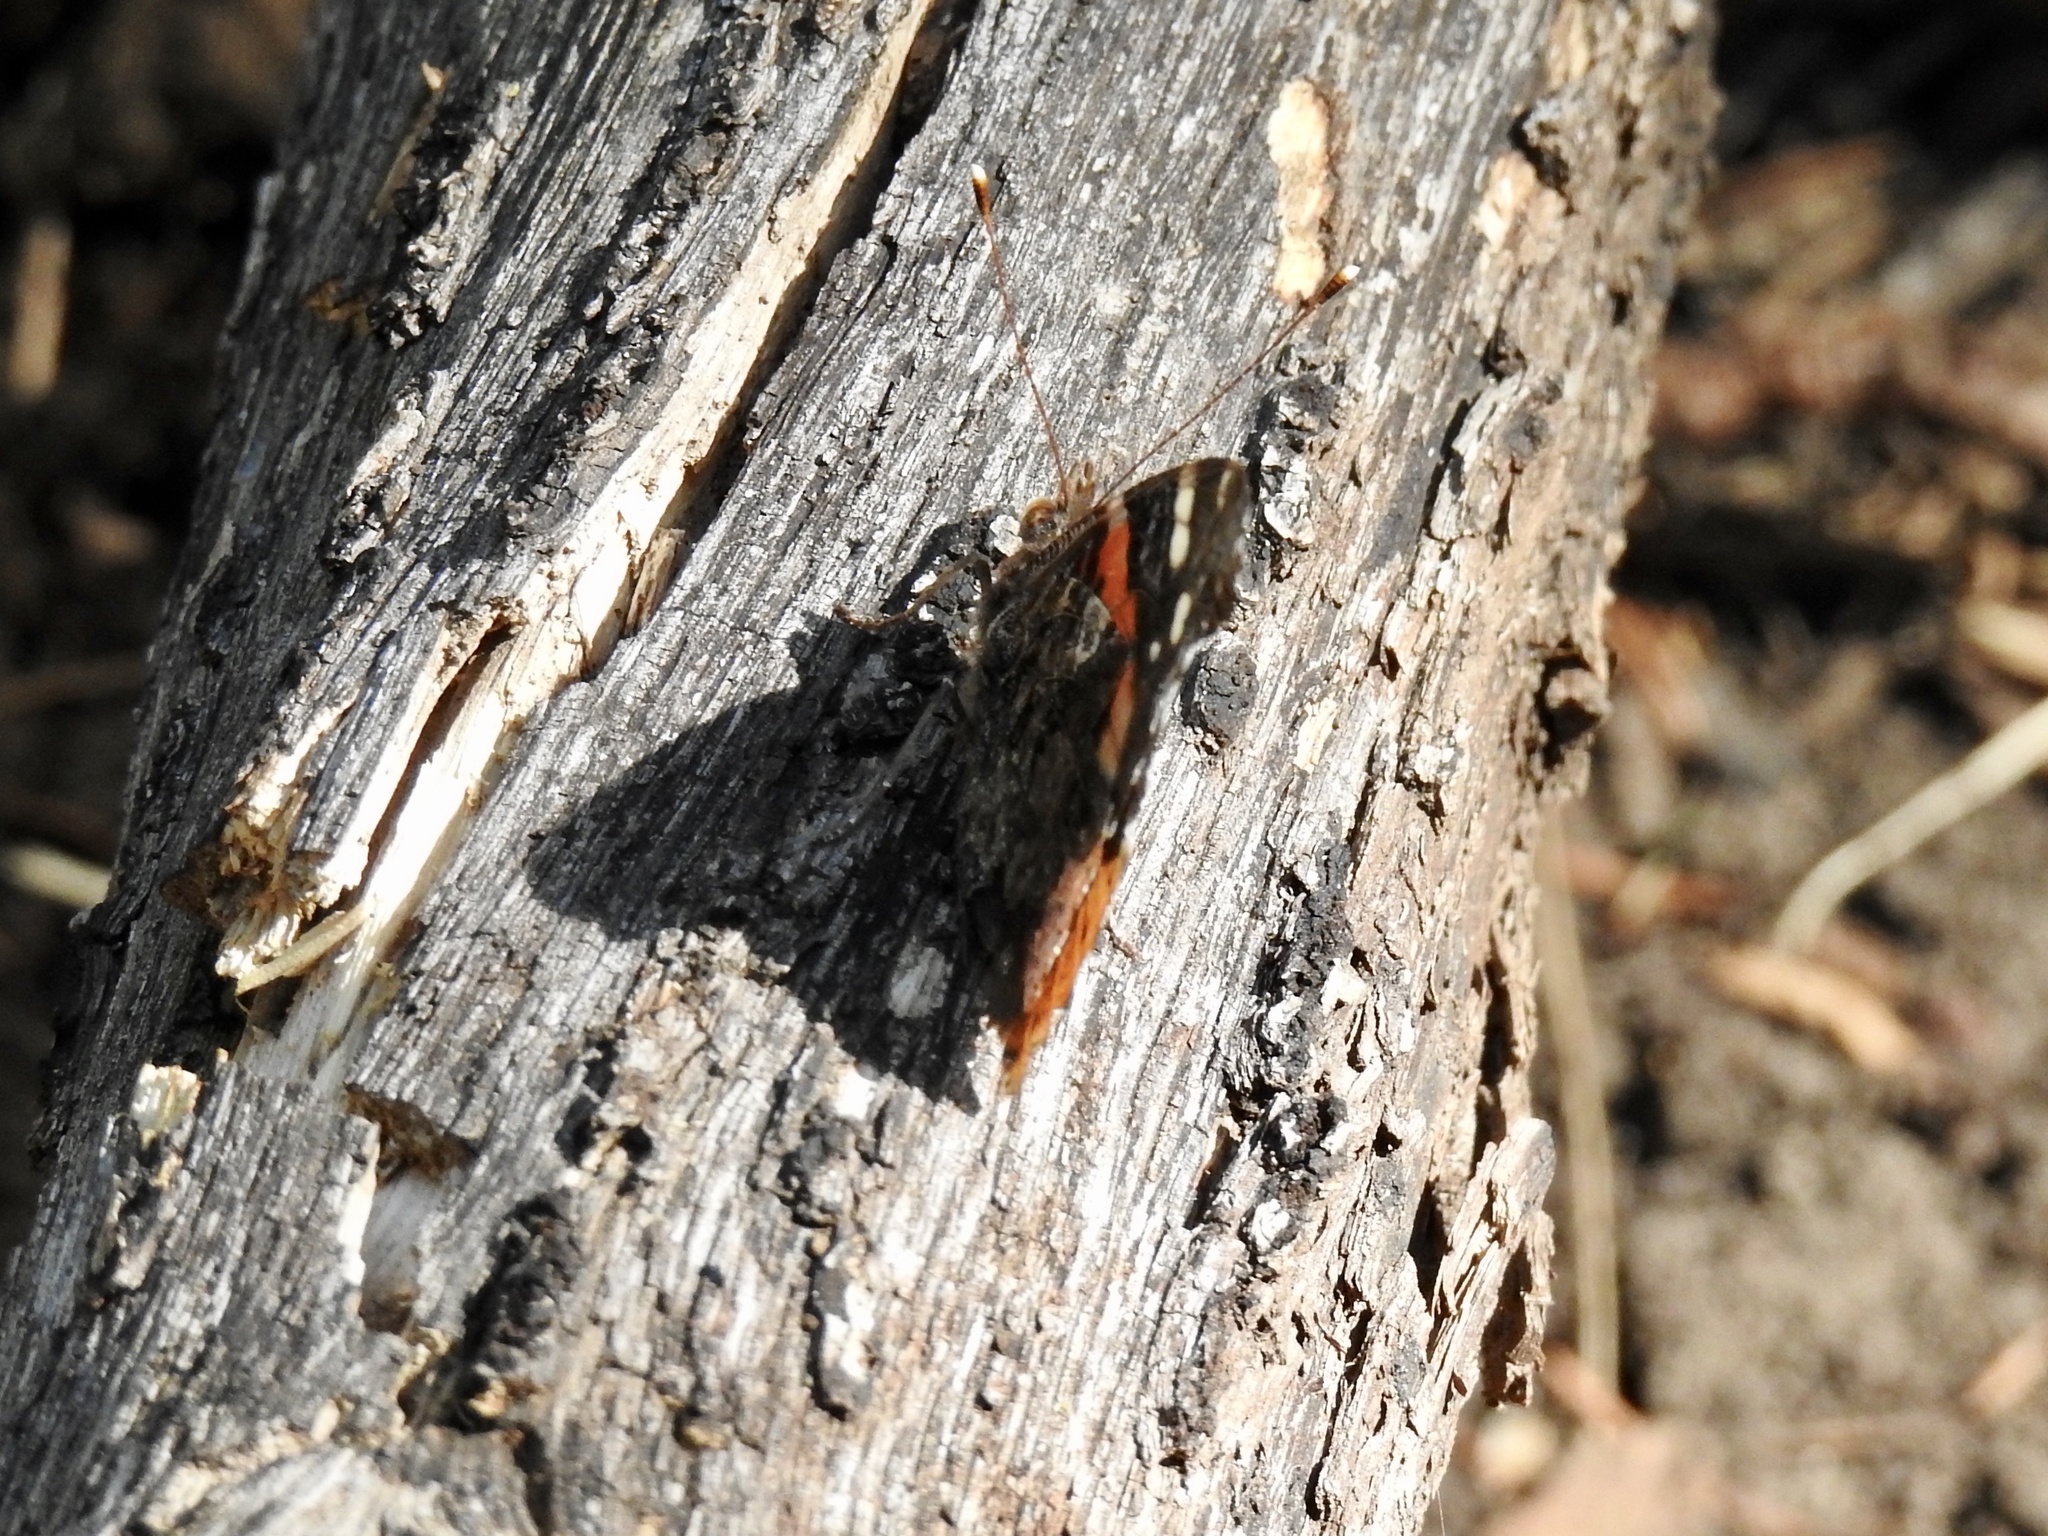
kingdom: Animalia
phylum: Arthropoda
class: Insecta
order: Lepidoptera
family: Nymphalidae
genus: Vanessa
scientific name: Vanessa atalanta
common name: Red admiral
